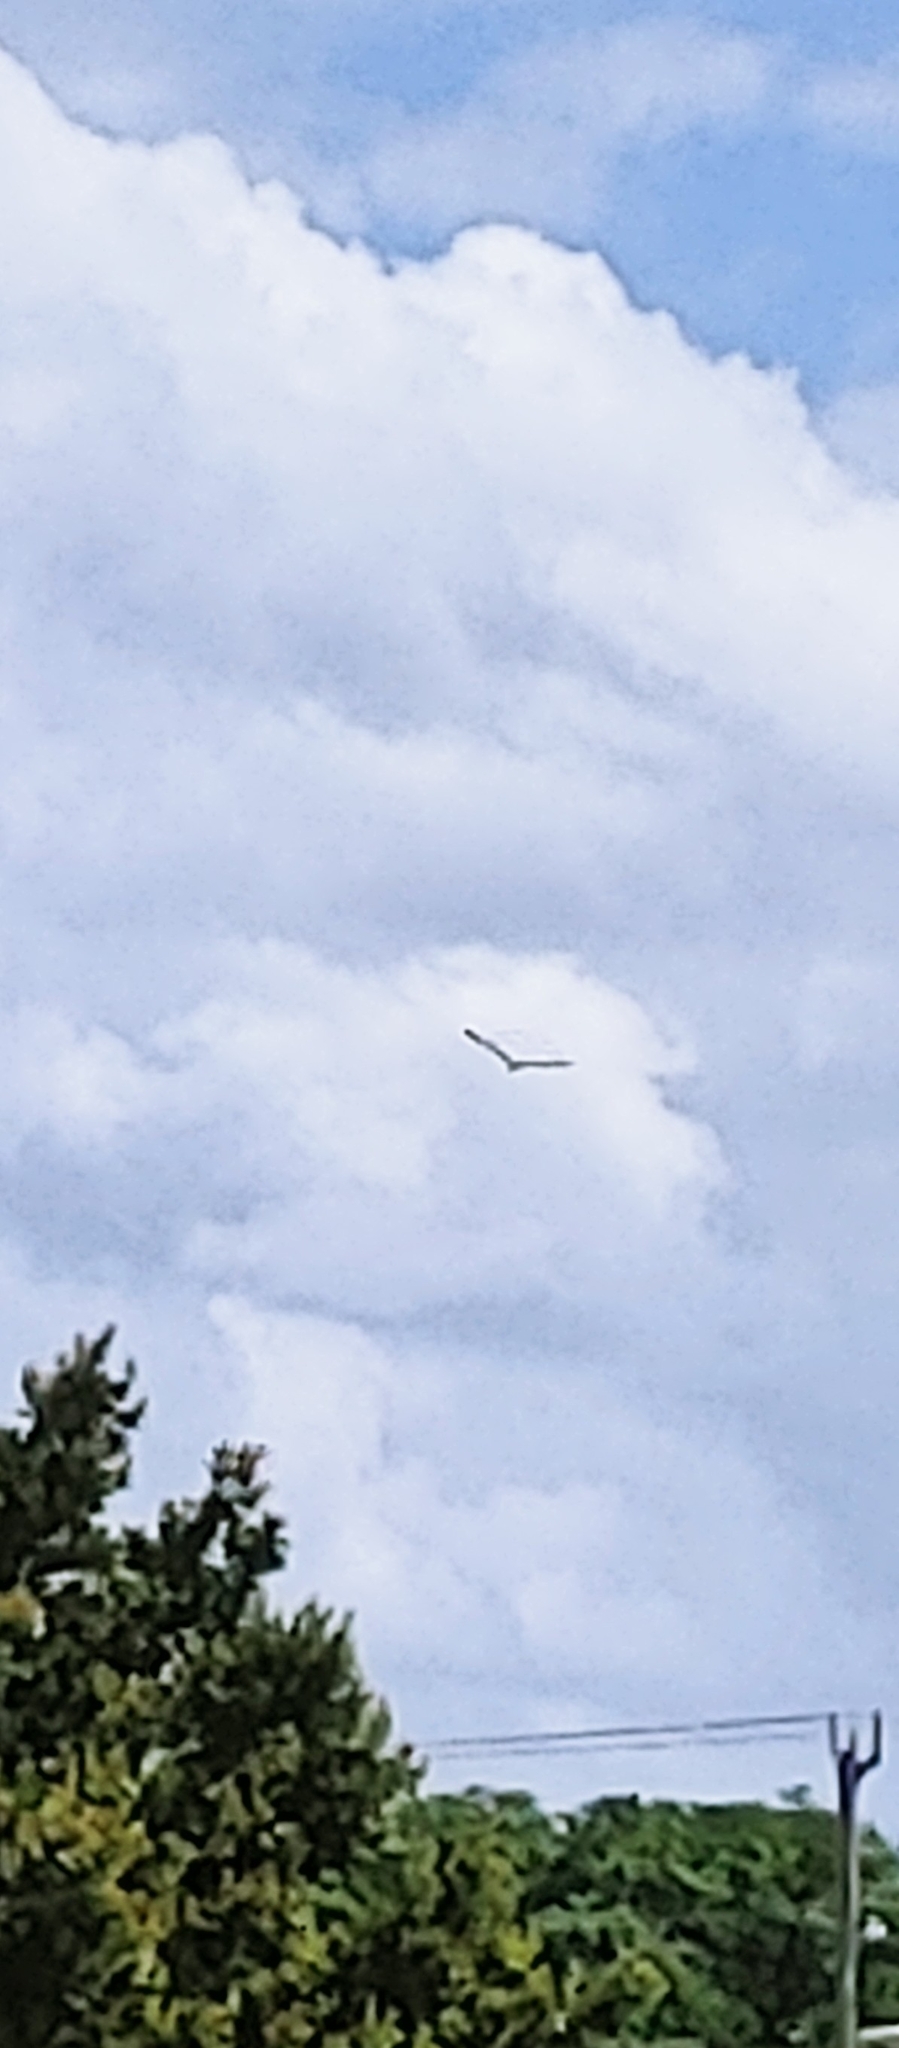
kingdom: Animalia
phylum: Chordata
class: Aves
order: Accipitriformes
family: Pandionidae
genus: Pandion
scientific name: Pandion haliaetus
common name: Osprey
